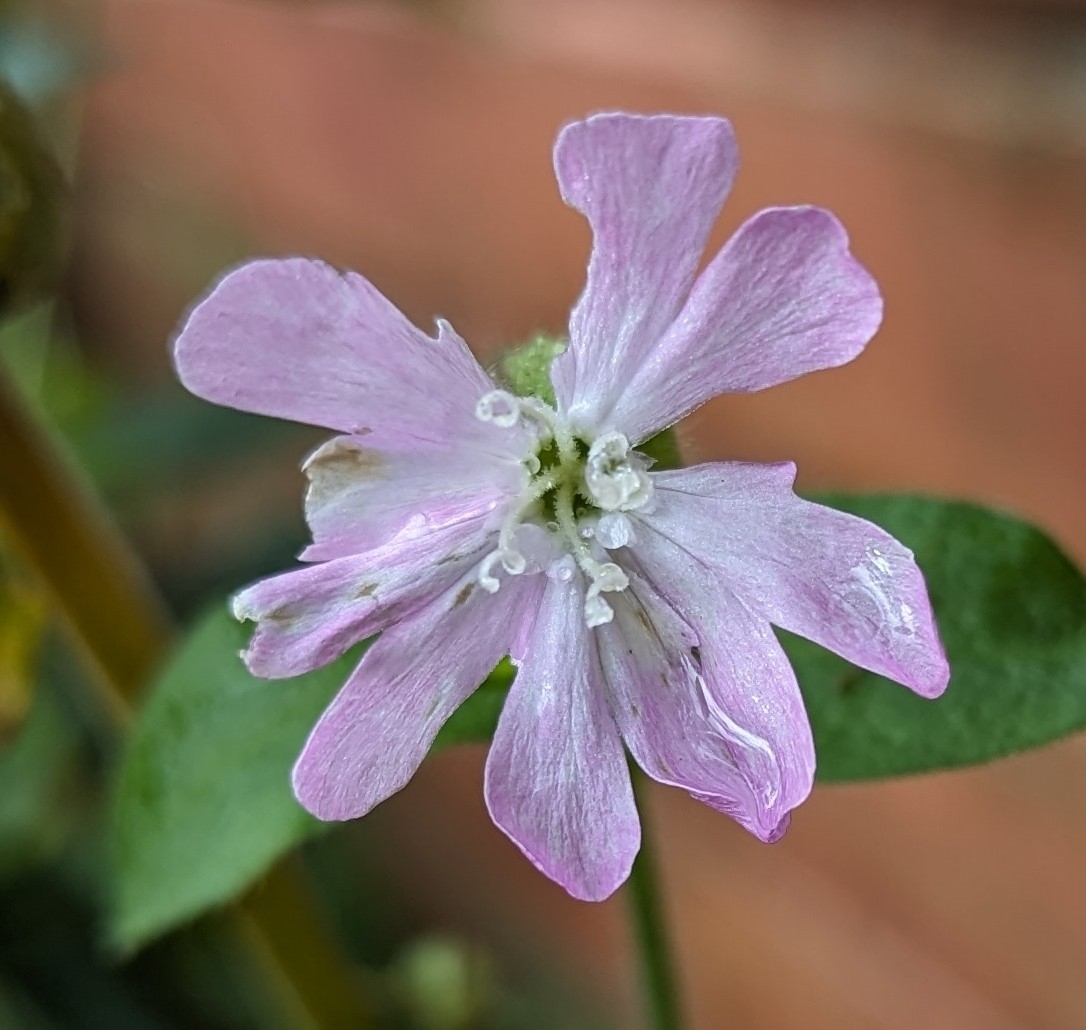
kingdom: Plantae
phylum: Tracheophyta
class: Magnoliopsida
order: Caryophyllales
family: Caryophyllaceae
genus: Silene
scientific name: Silene dioica
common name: Red campion
